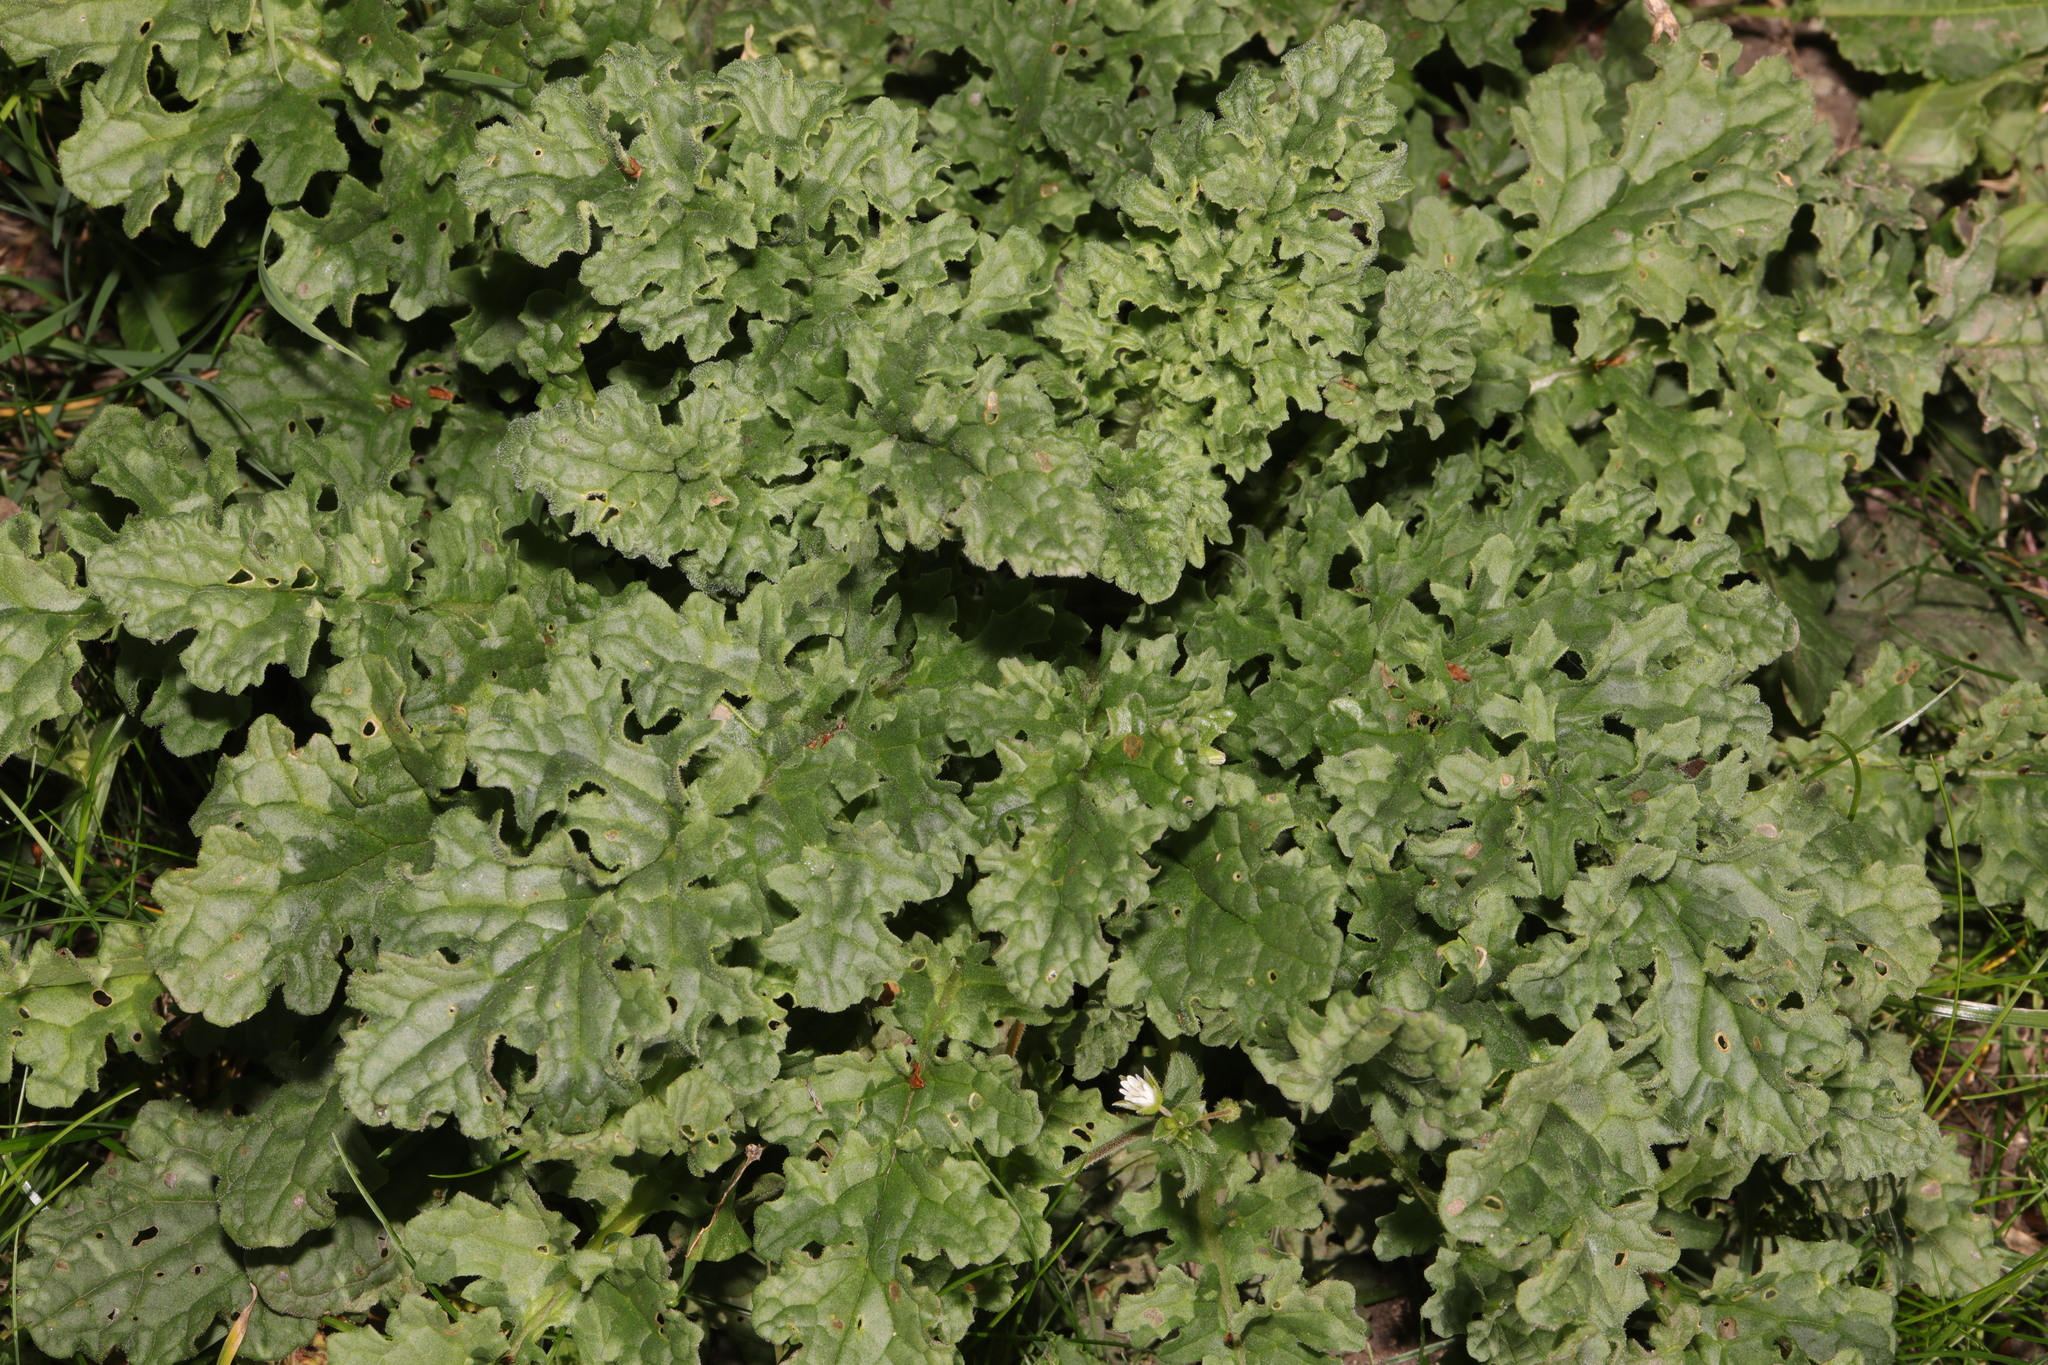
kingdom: Plantae
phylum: Tracheophyta
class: Magnoliopsida
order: Asterales
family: Asteraceae
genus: Jacobaea
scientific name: Jacobaea vulgaris
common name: Stinking willie
